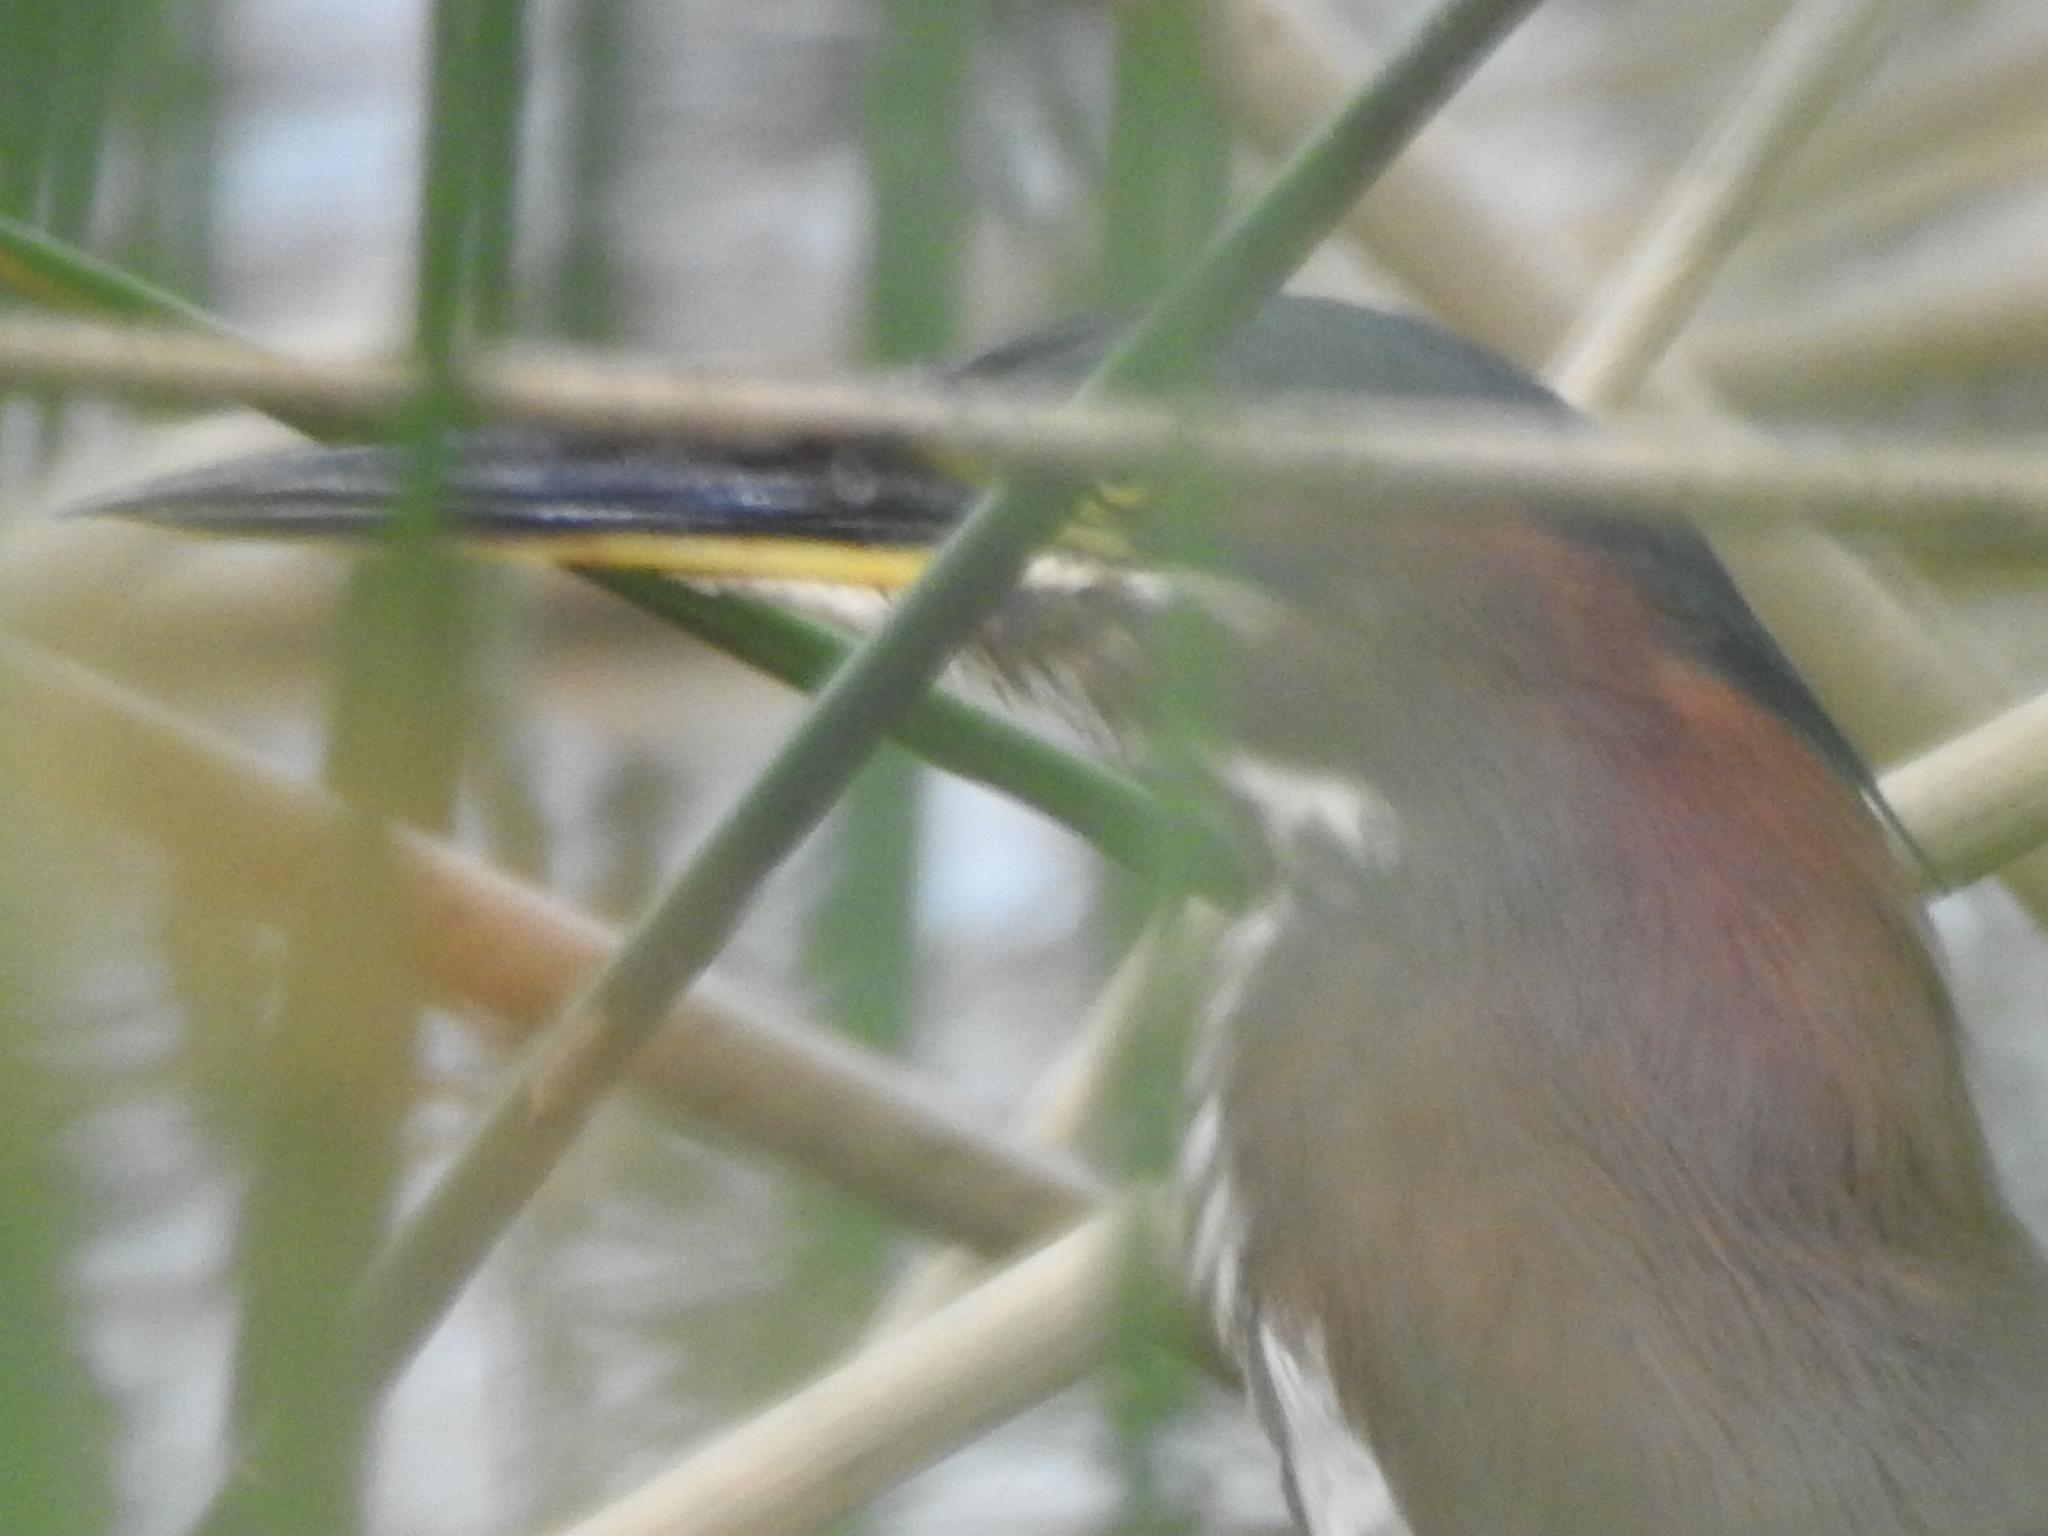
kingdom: Animalia
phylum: Chordata
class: Aves
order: Pelecaniformes
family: Ardeidae
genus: Butorides
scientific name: Butorides virescens
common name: Green heron
